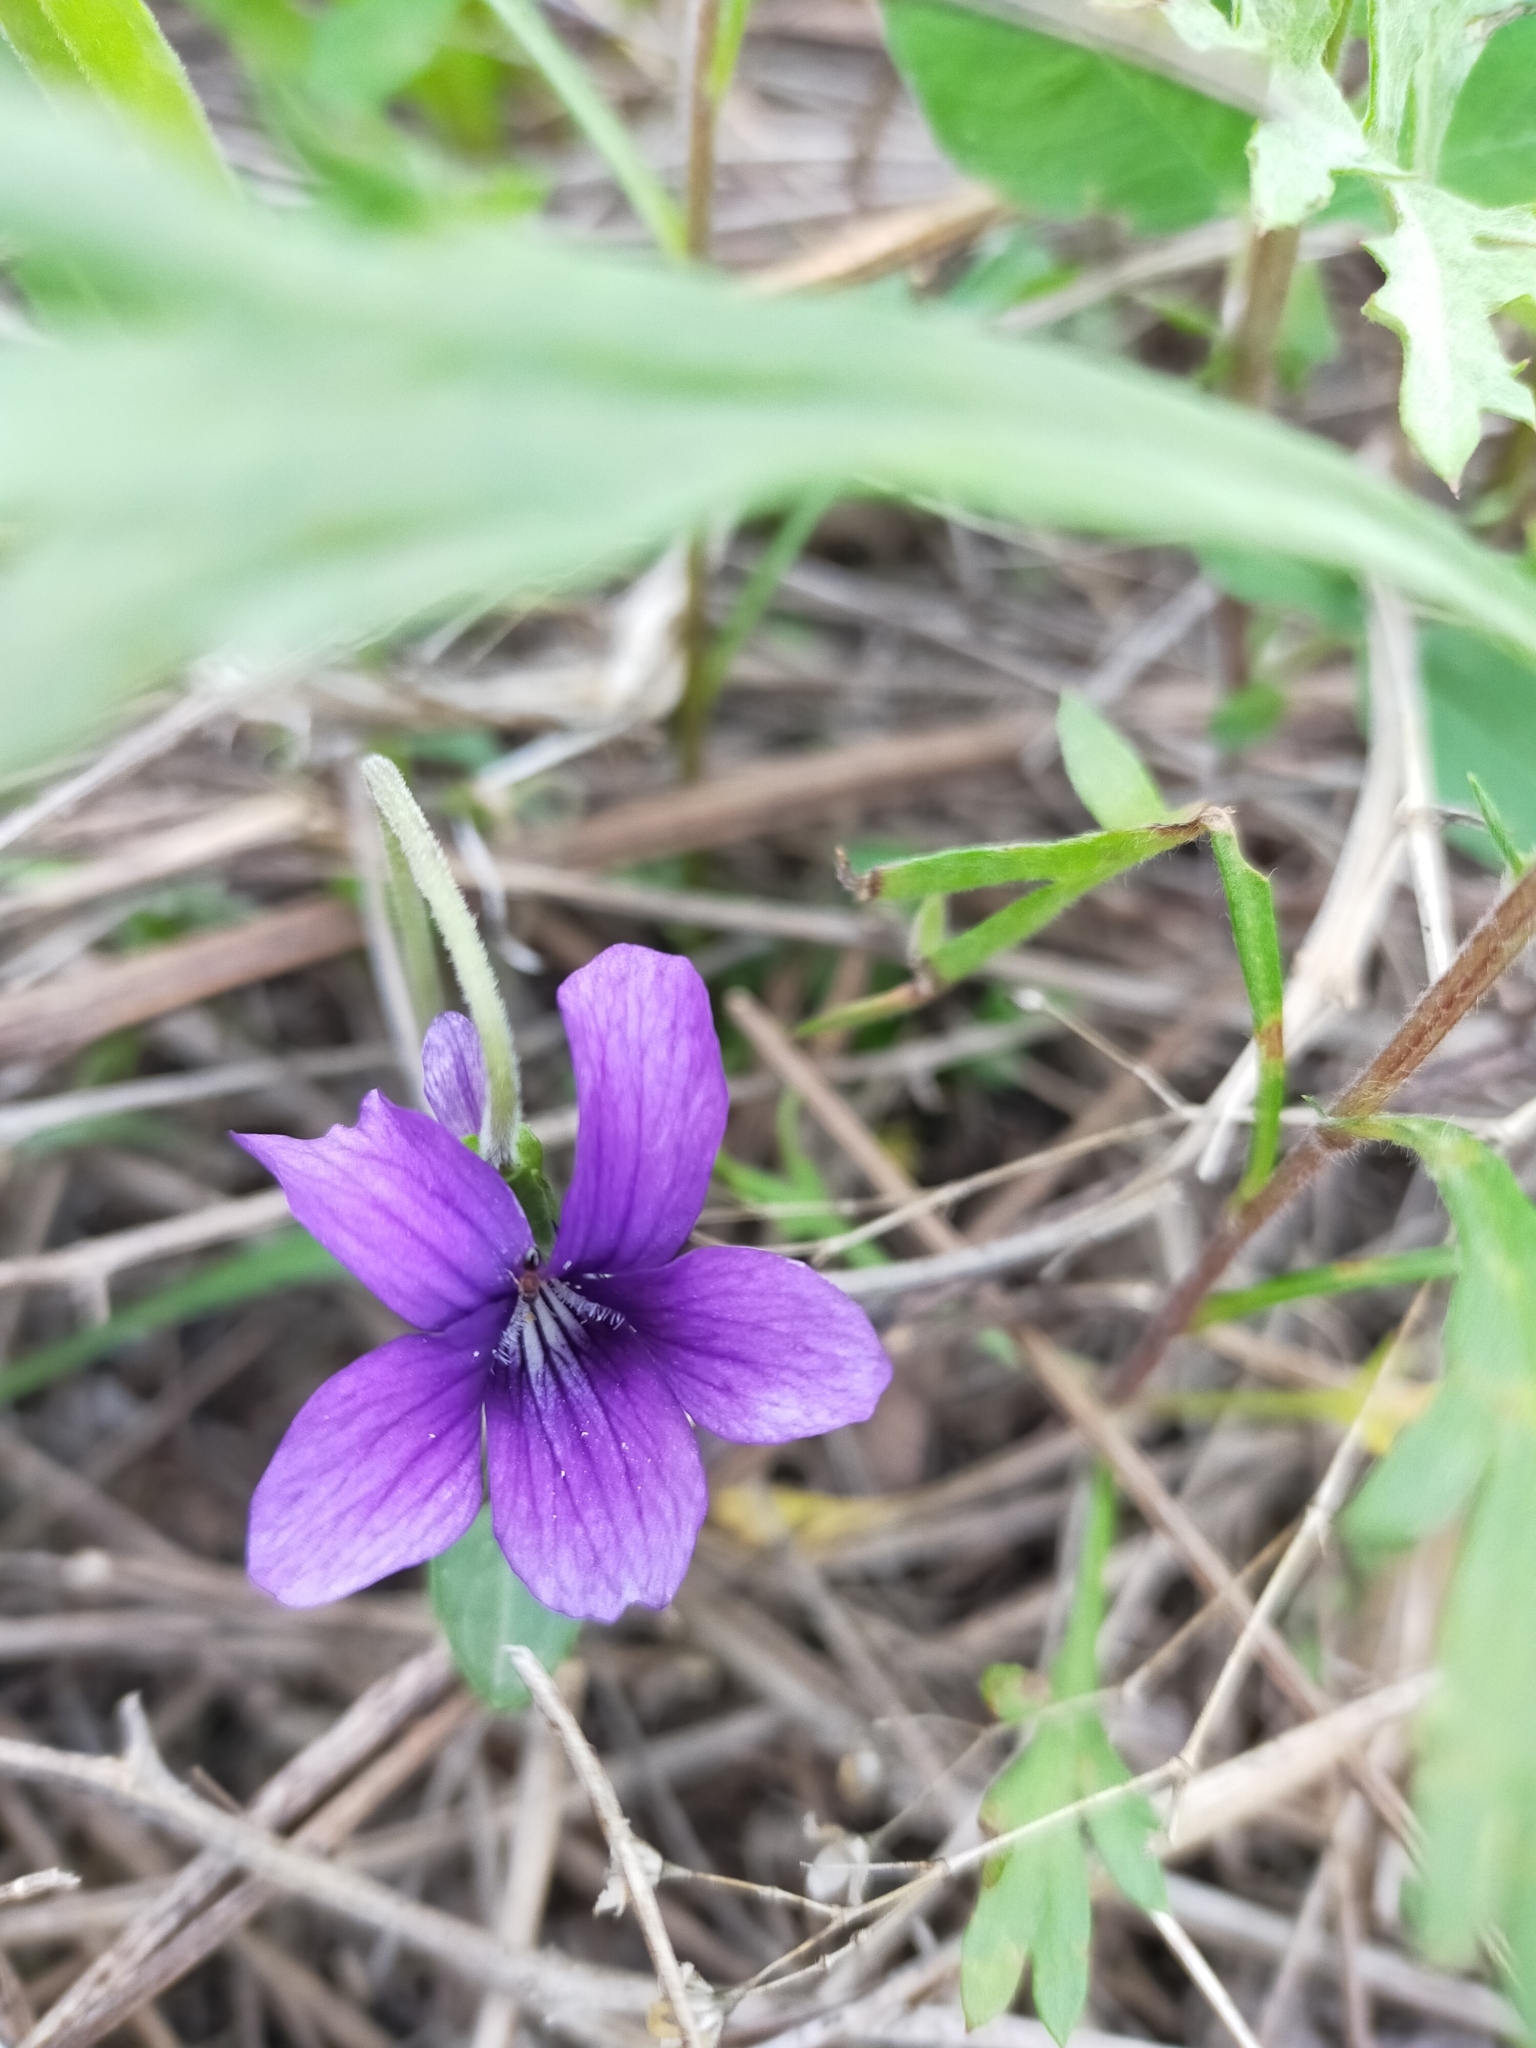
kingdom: Plantae
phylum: Tracheophyta
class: Magnoliopsida
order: Malpighiales
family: Violaceae
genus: Viola
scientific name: Viola mandshurica
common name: Manchuria violet
